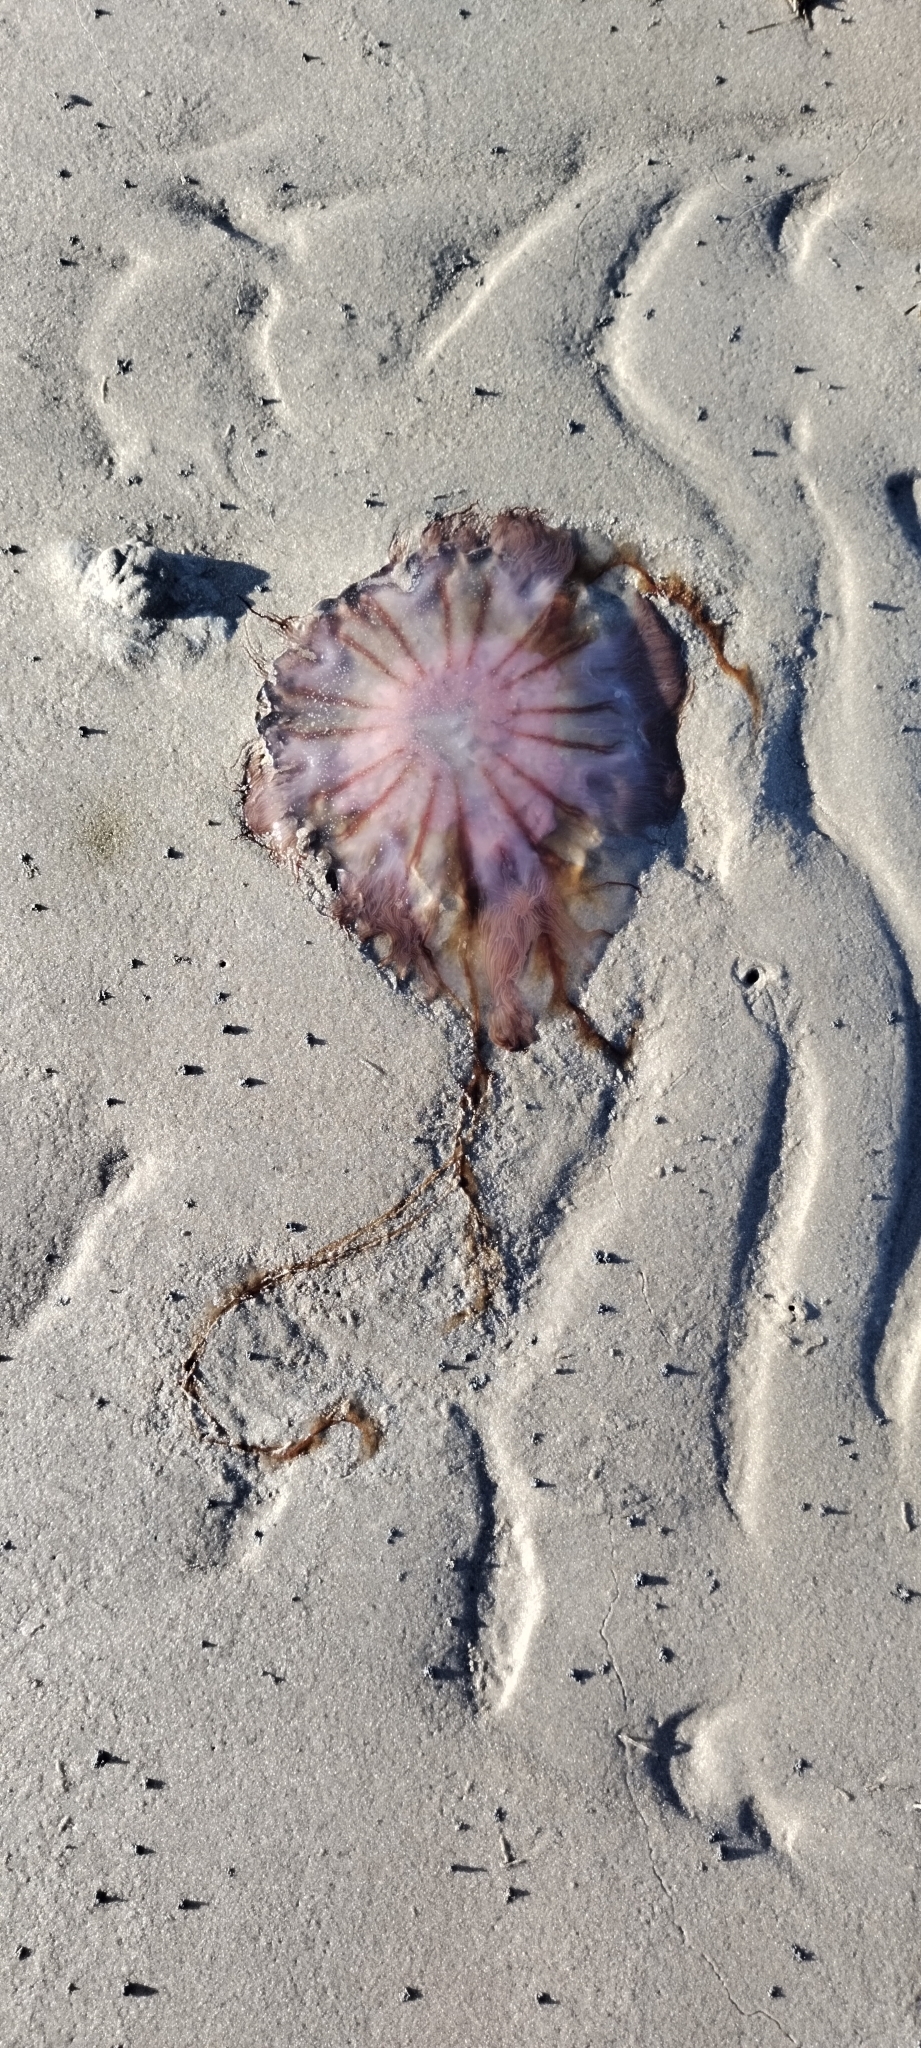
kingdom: Animalia
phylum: Cnidaria
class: Scyphozoa
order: Semaeostomeae
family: Cyaneidae
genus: Cyanea
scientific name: Cyanea versicolor
